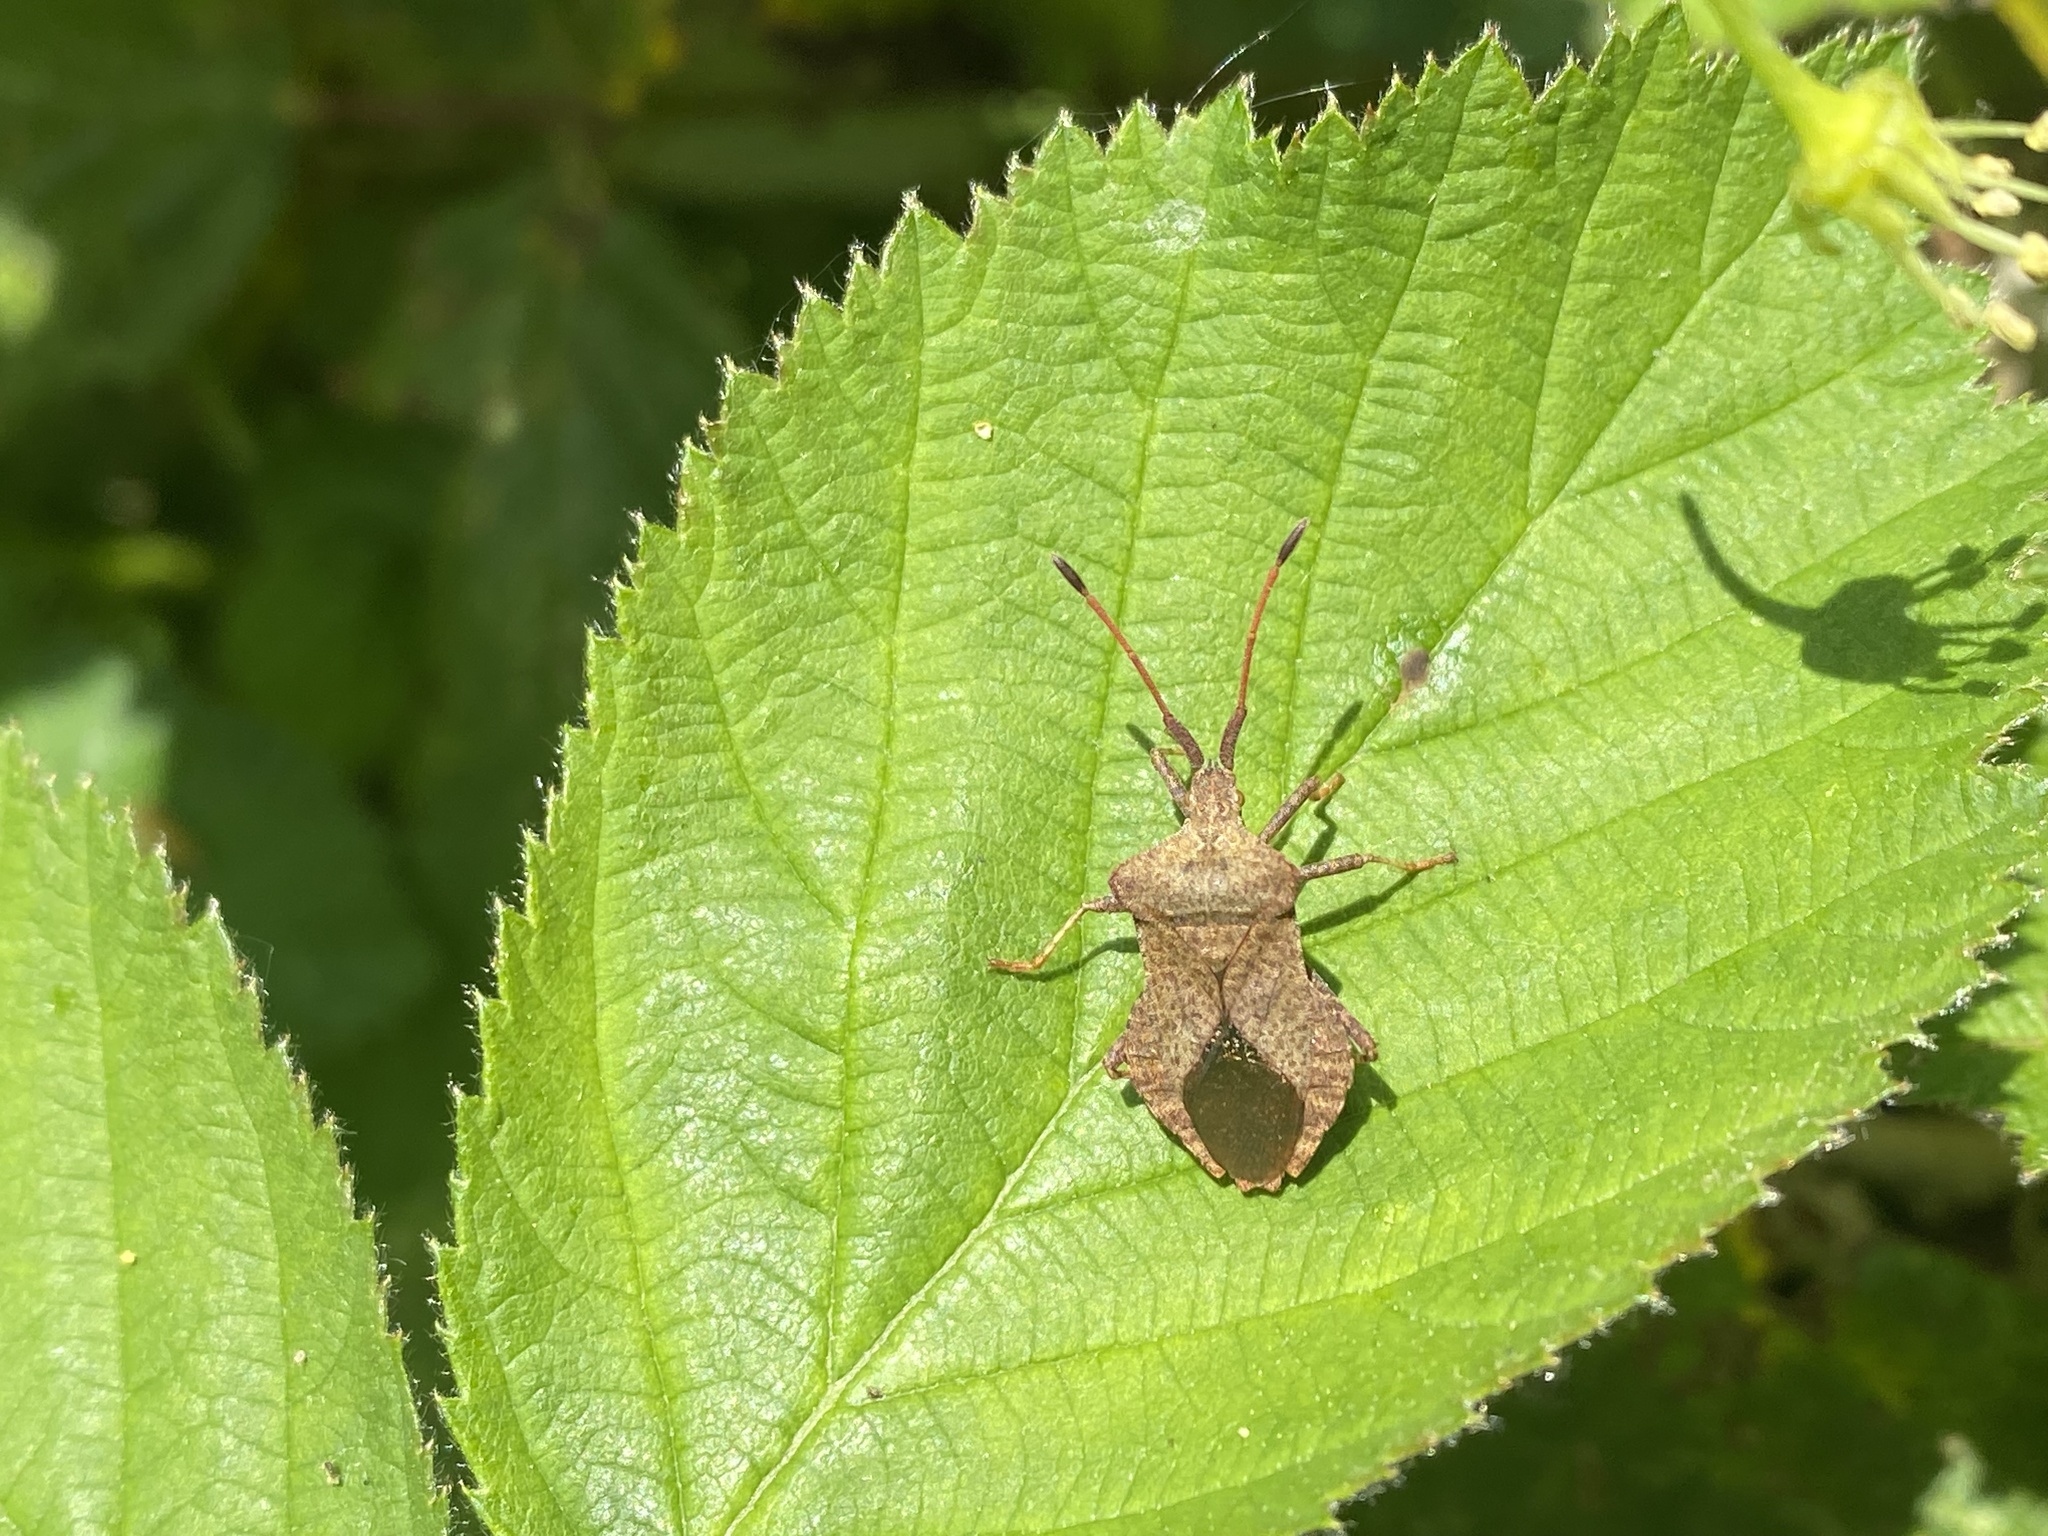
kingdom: Animalia
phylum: Arthropoda
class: Insecta
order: Hemiptera
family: Coreidae
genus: Coreus
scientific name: Coreus marginatus
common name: Dock bug
